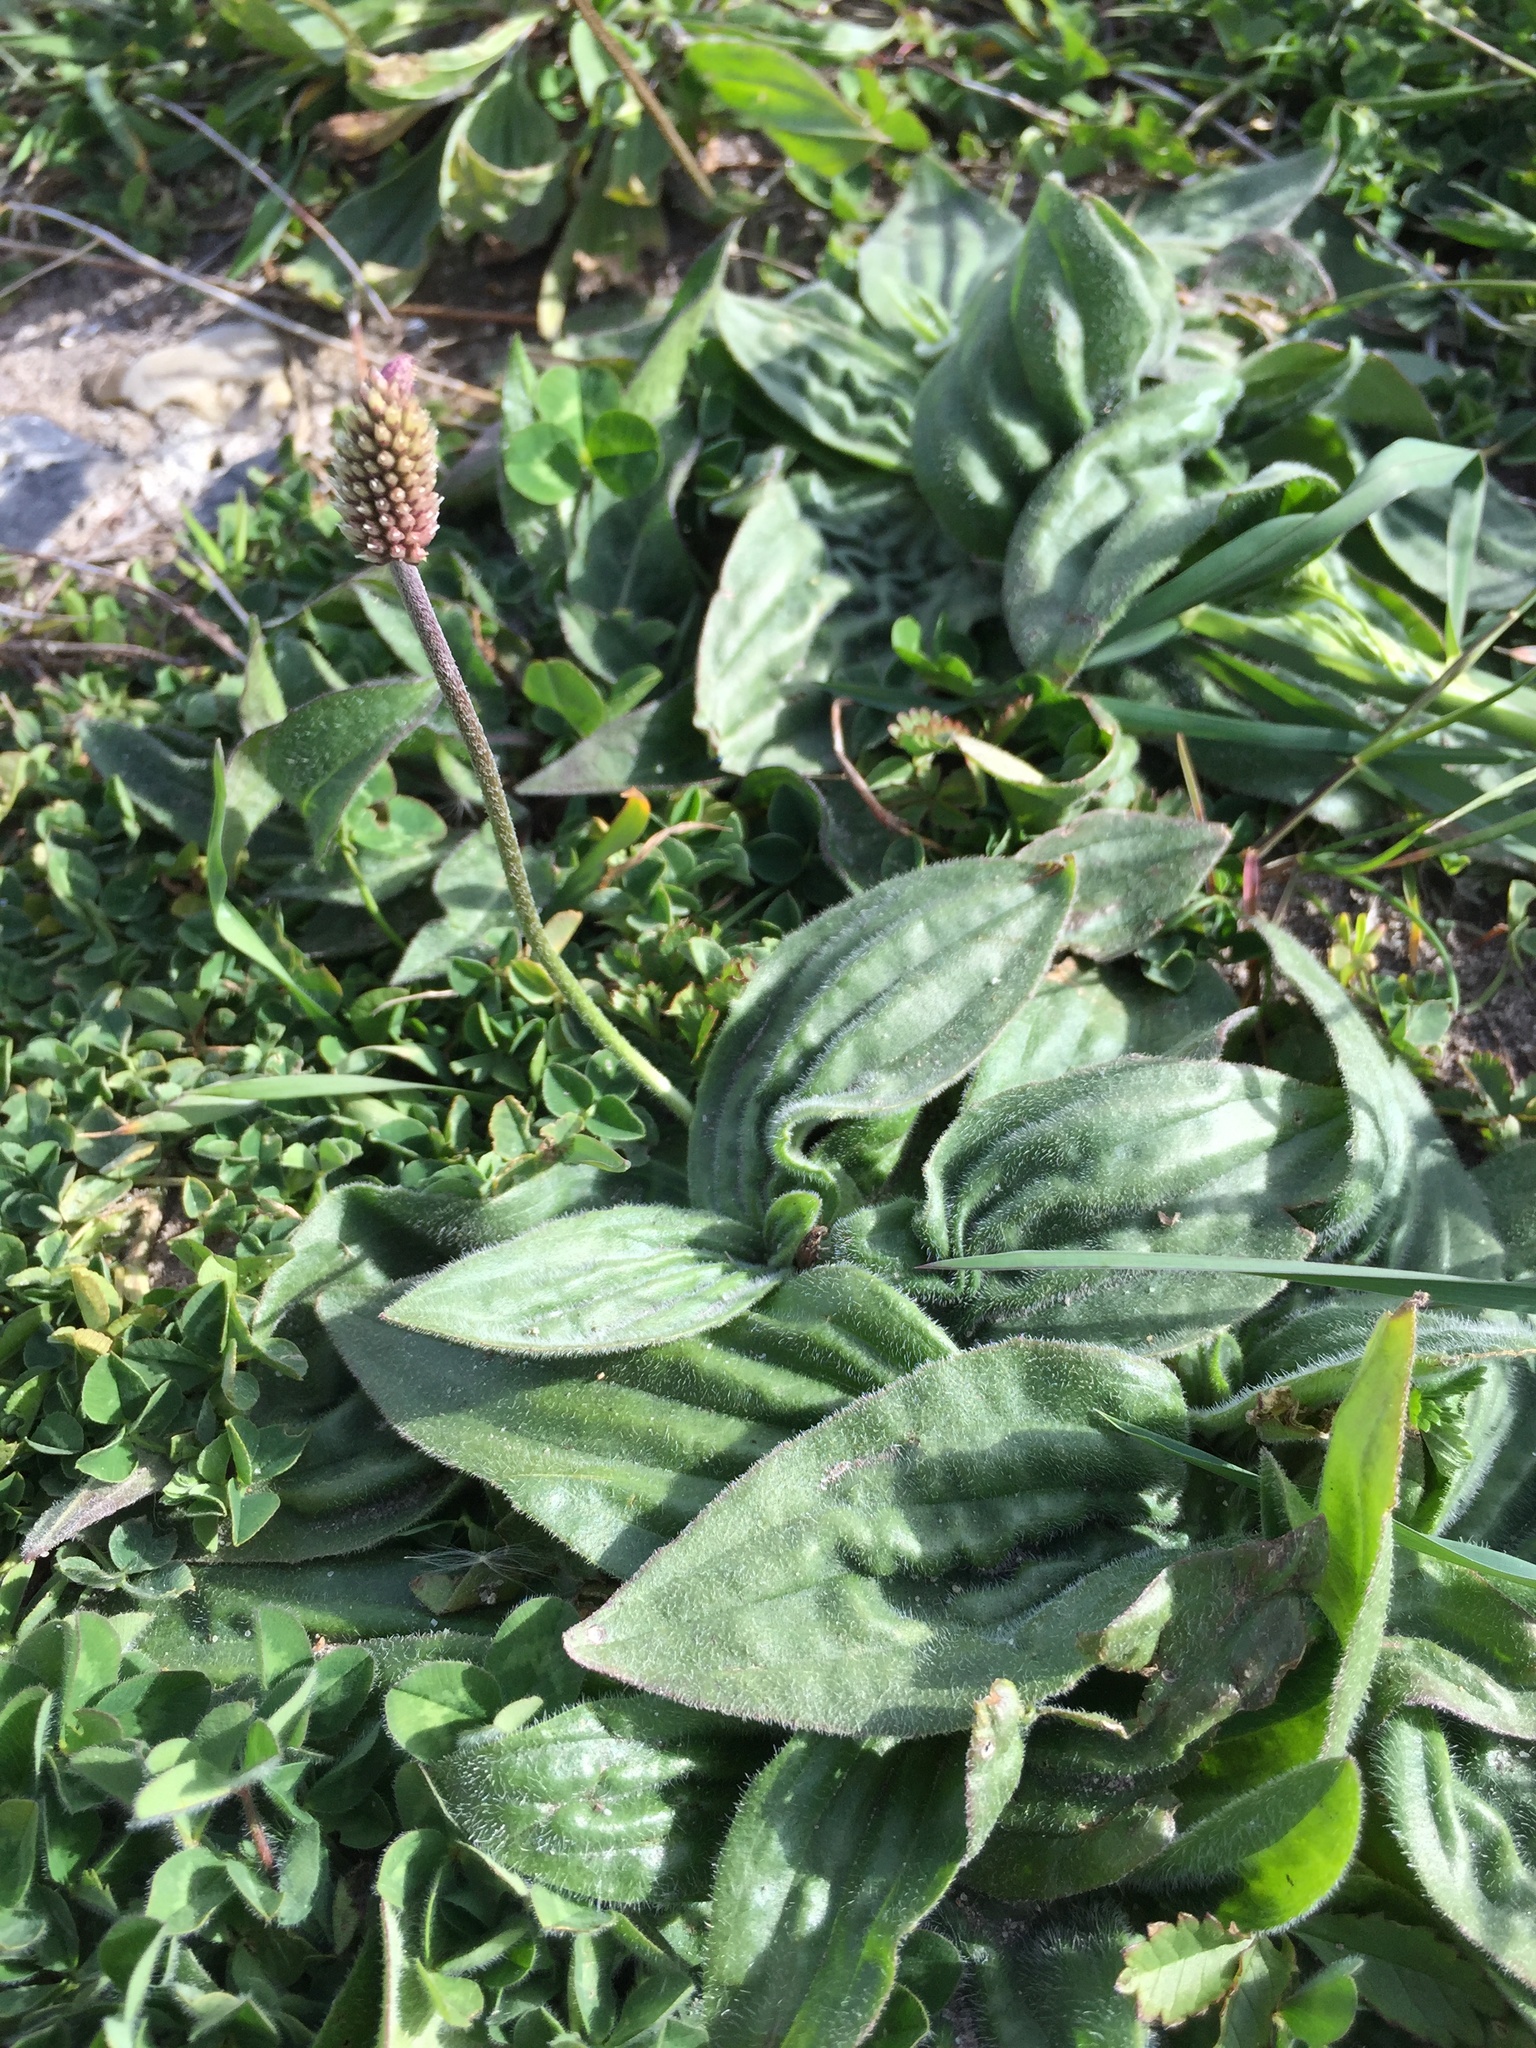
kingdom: Plantae
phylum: Tracheophyta
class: Magnoliopsida
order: Lamiales
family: Plantaginaceae
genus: Plantago
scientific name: Plantago media
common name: Hoary plantain
